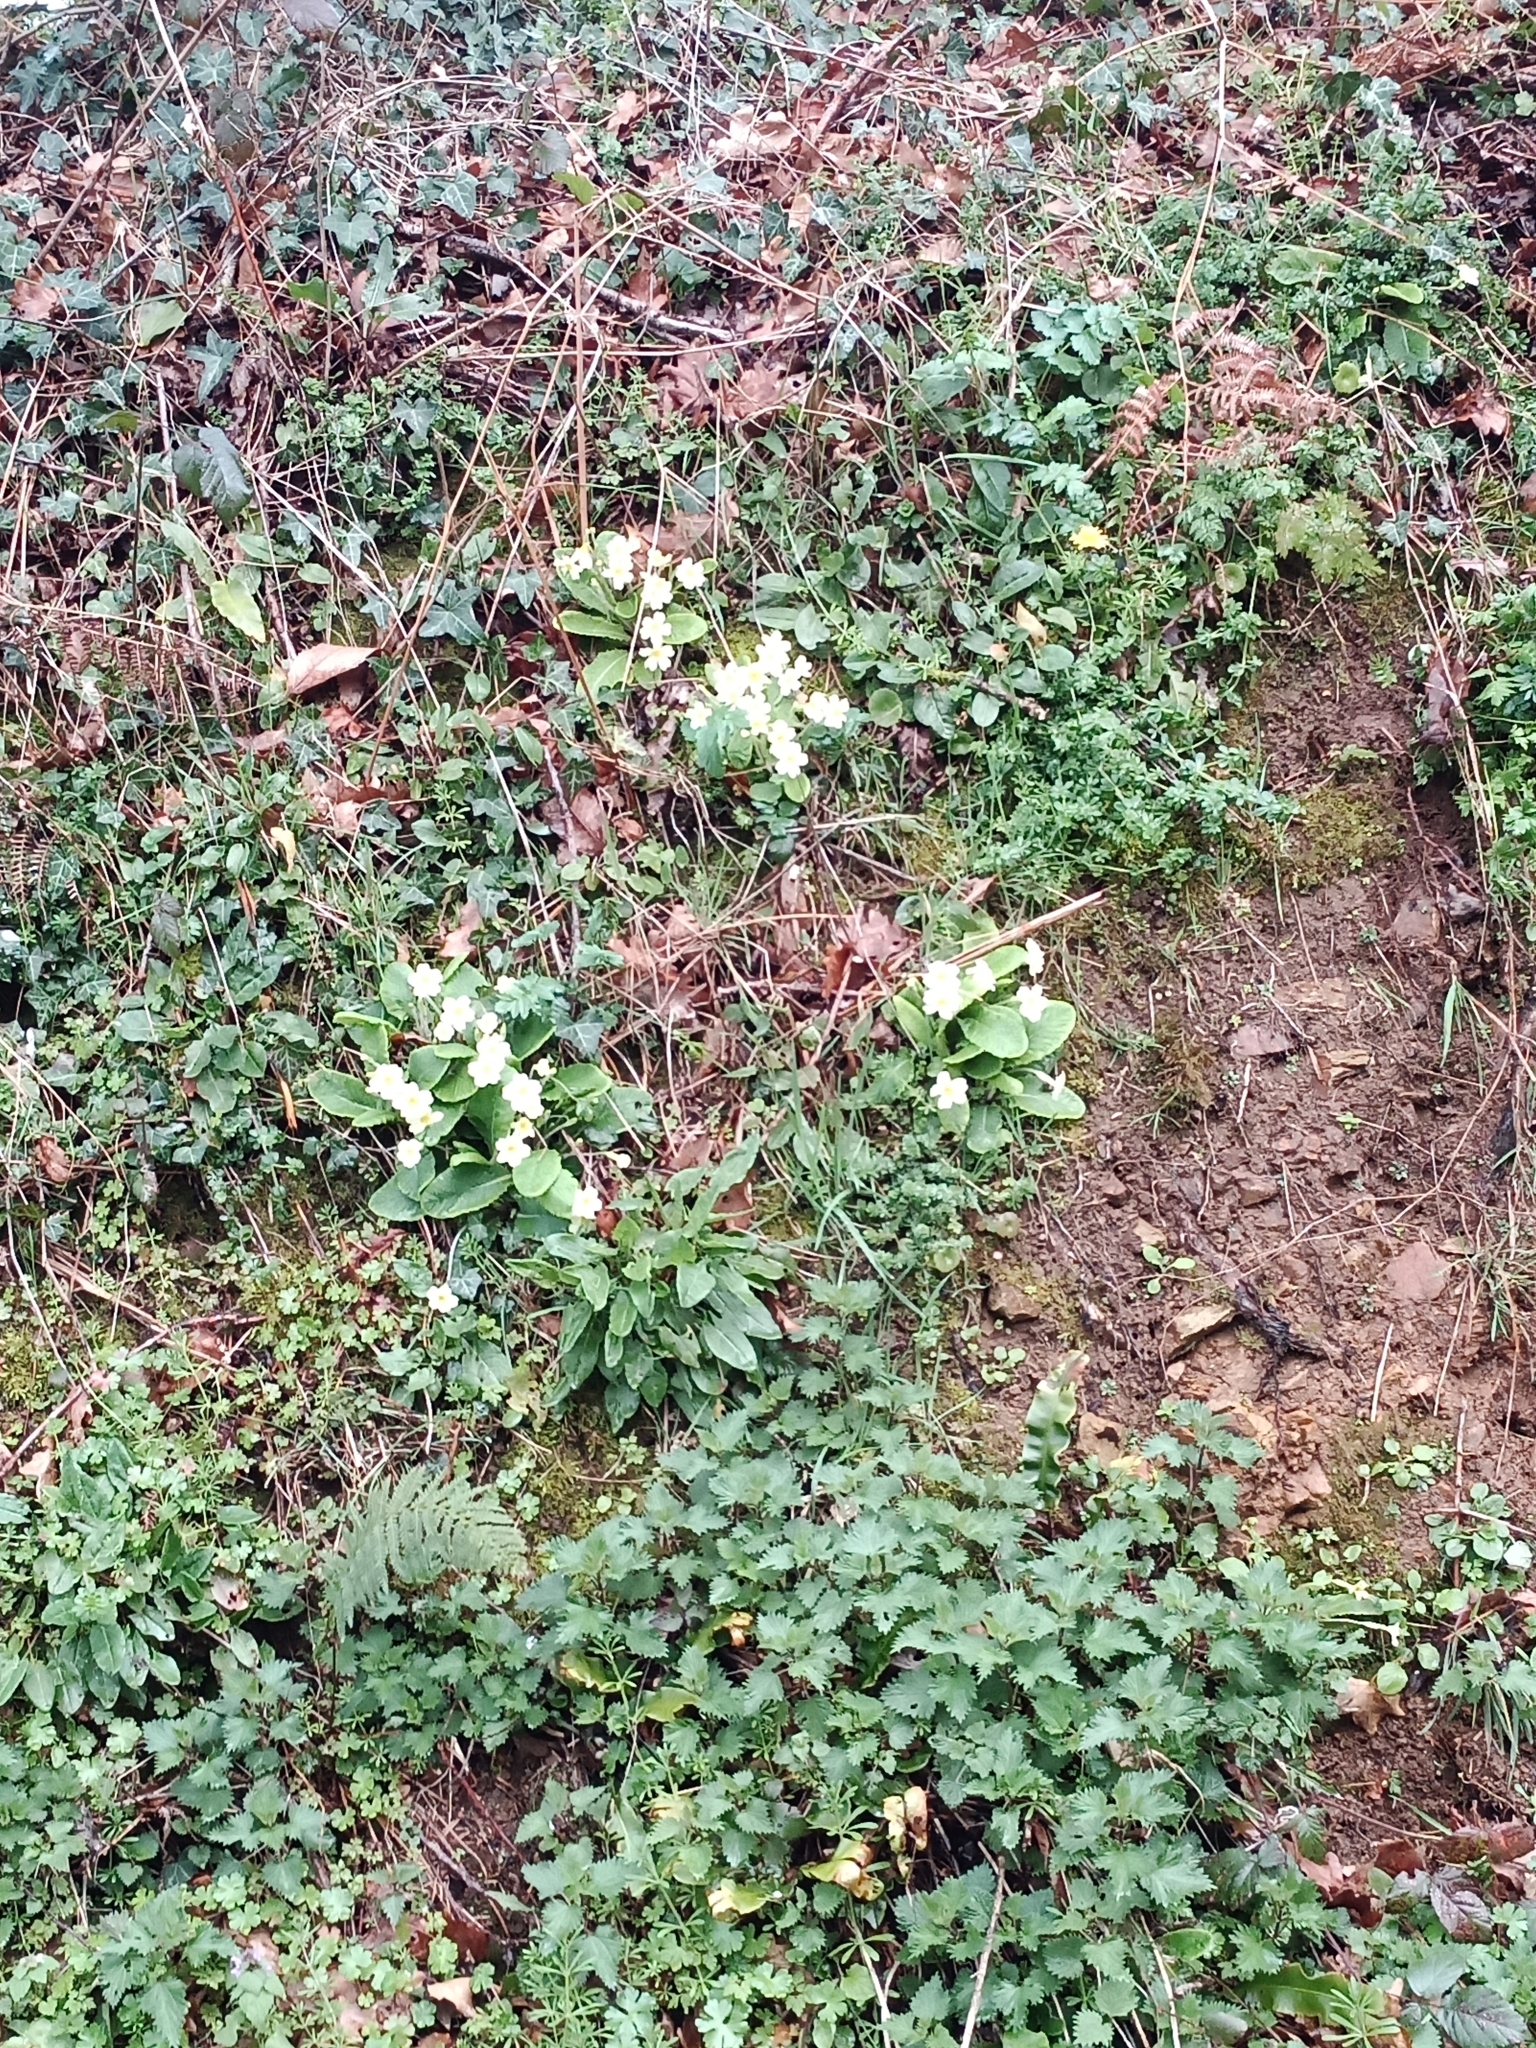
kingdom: Plantae
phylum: Tracheophyta
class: Magnoliopsida
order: Ericales
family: Primulaceae
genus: Primula
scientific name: Primula vulgaris
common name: Primrose
